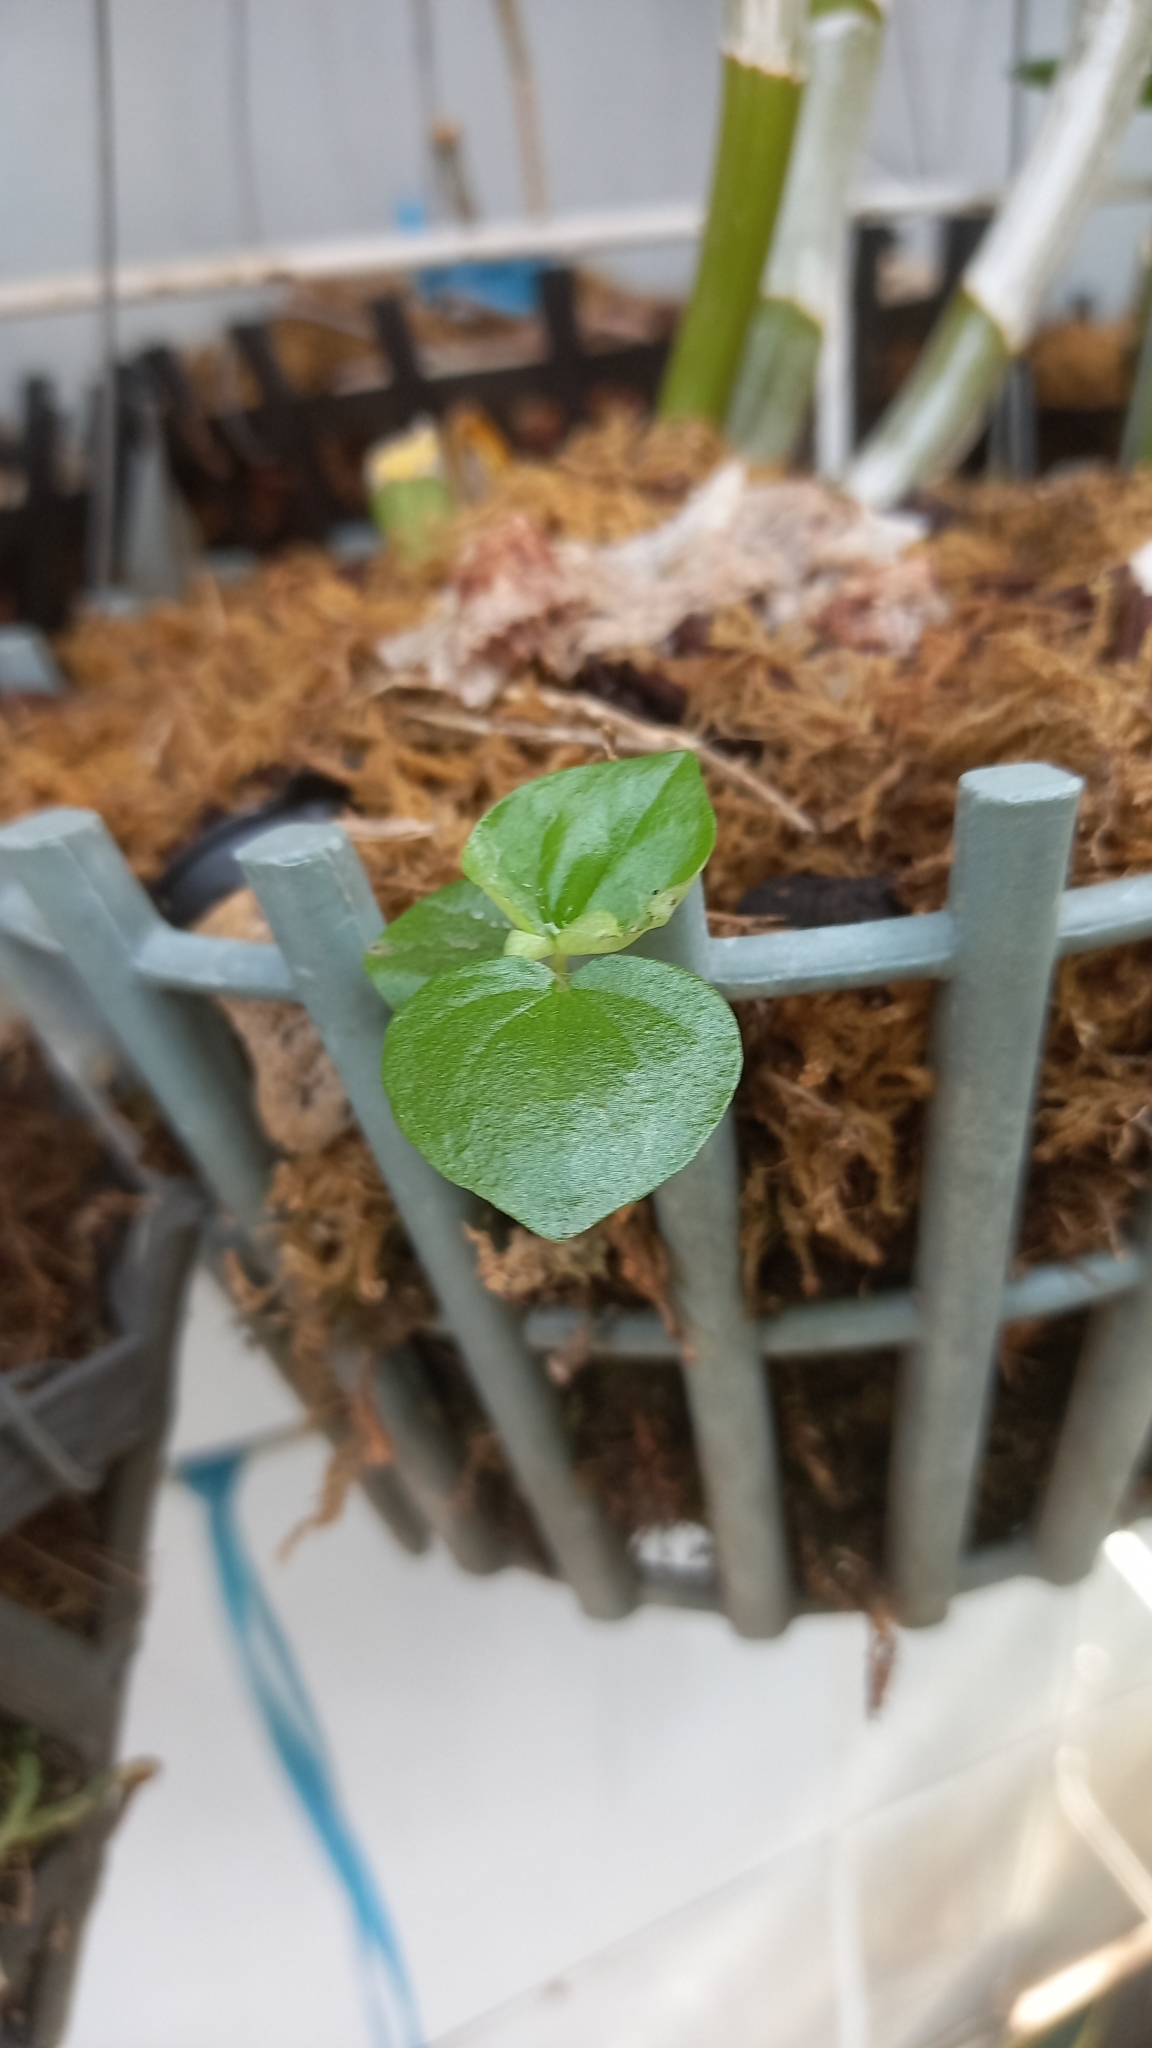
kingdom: Plantae
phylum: Tracheophyta
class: Magnoliopsida
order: Piperales
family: Piperaceae
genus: Peperomia
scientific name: Peperomia pellucida
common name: Man to man
